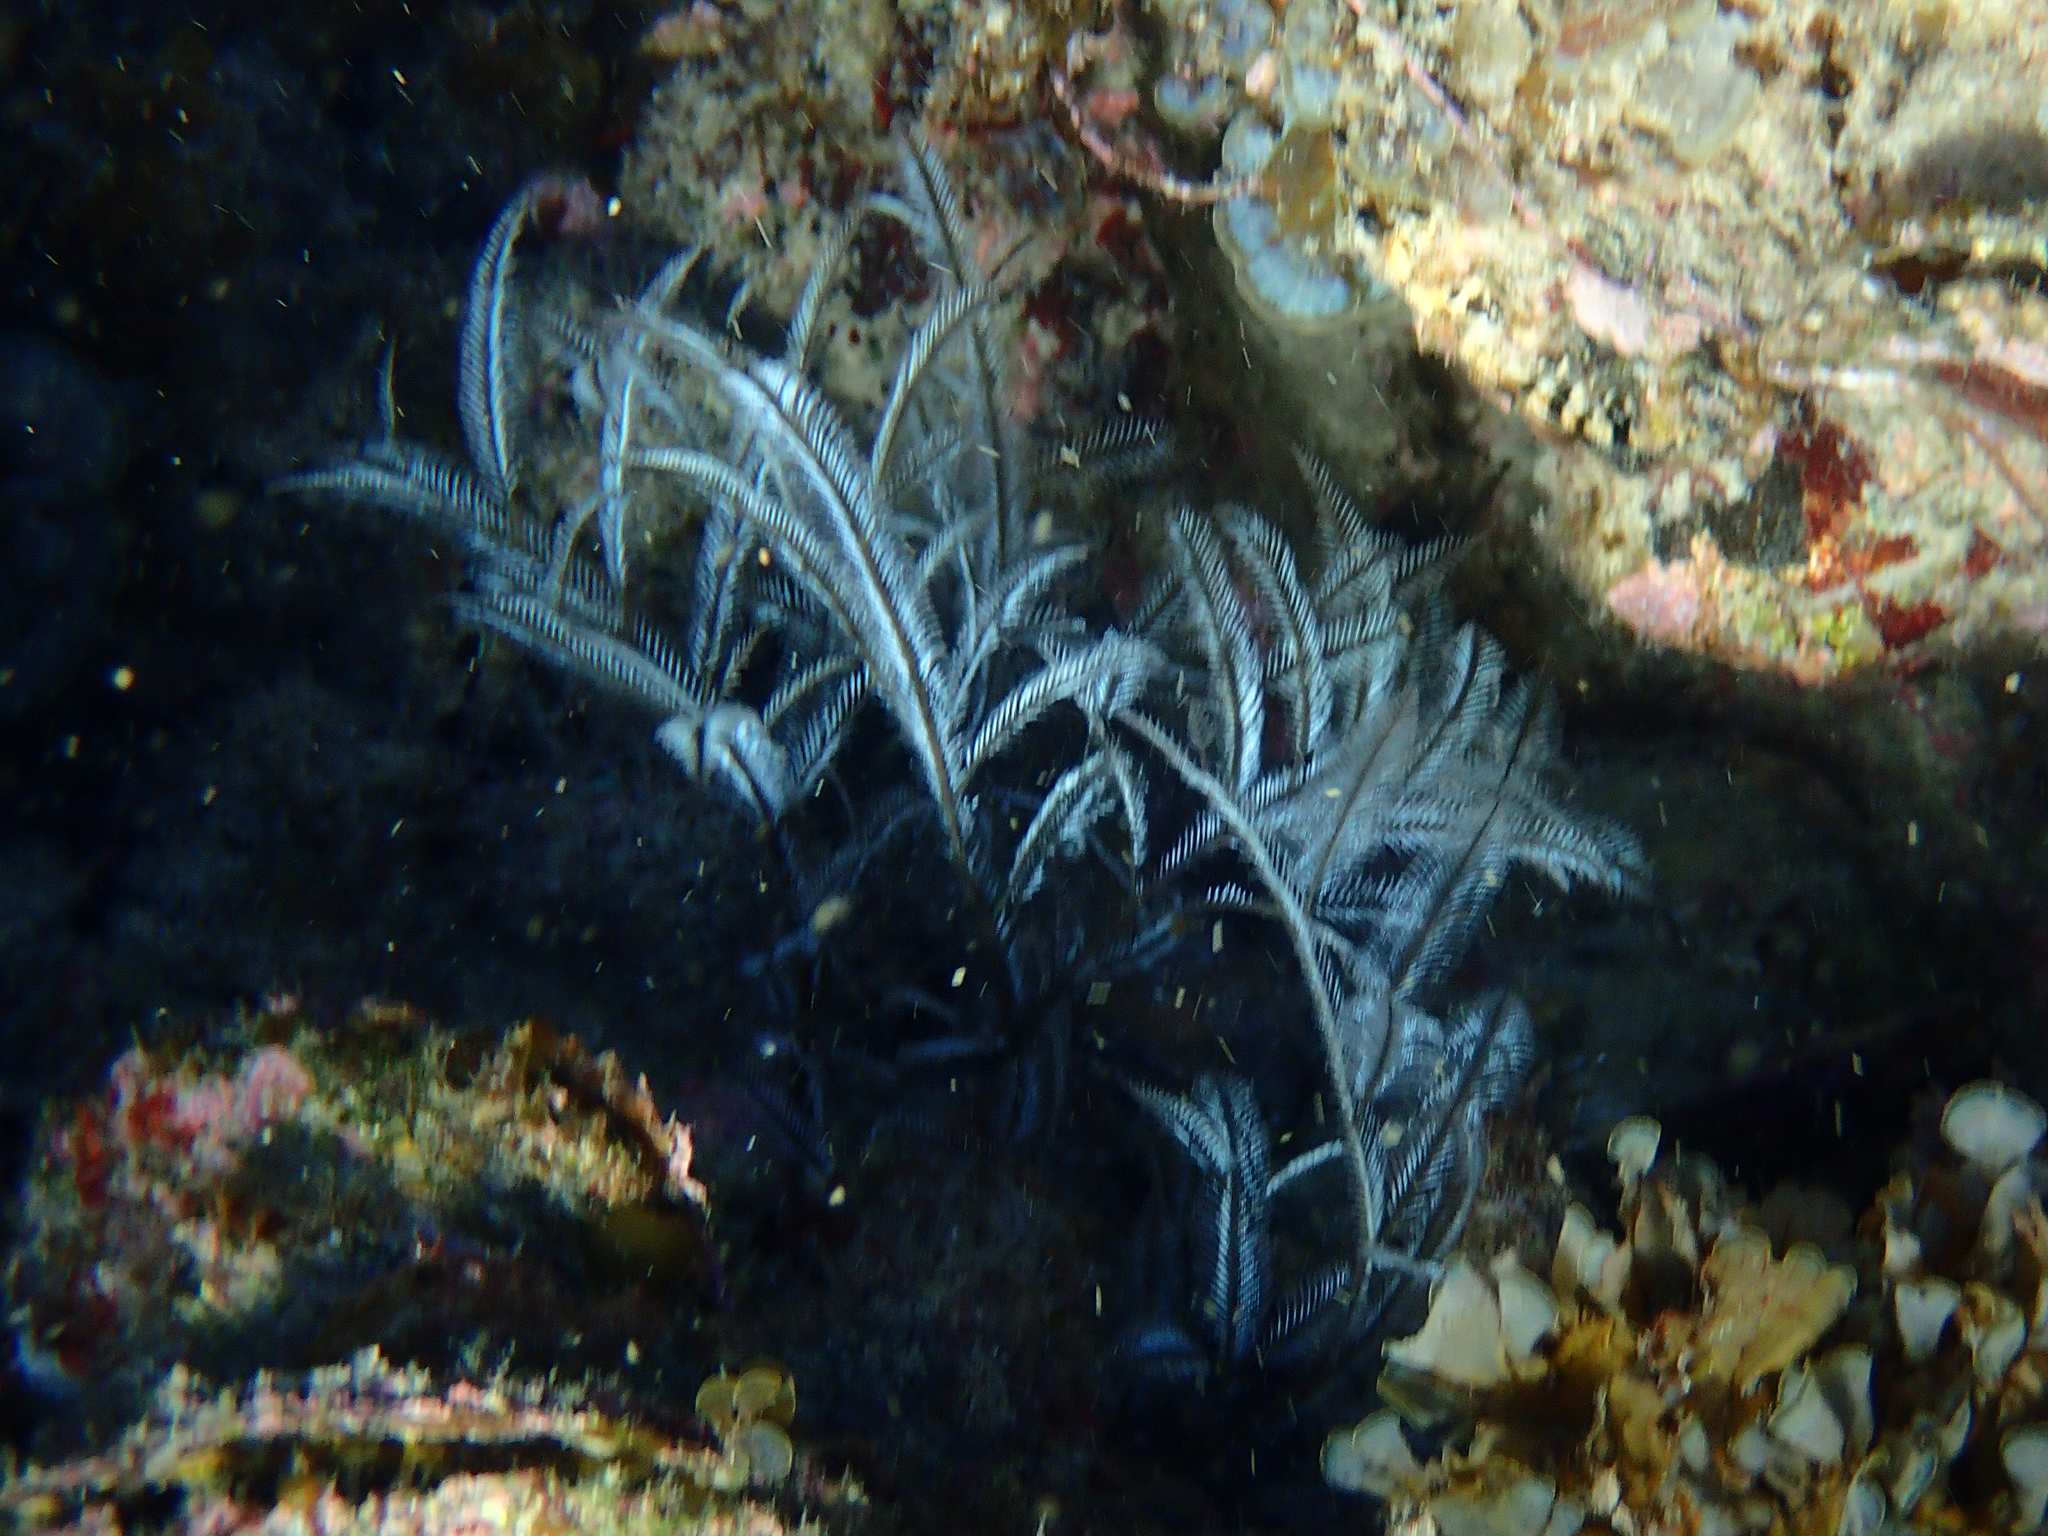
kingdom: Animalia
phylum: Cnidaria
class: Hydrozoa
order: Leptothecata
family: Aglaopheniidae
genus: Macrorhynchia
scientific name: Macrorhynchia philippina
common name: Stinging hydroid
